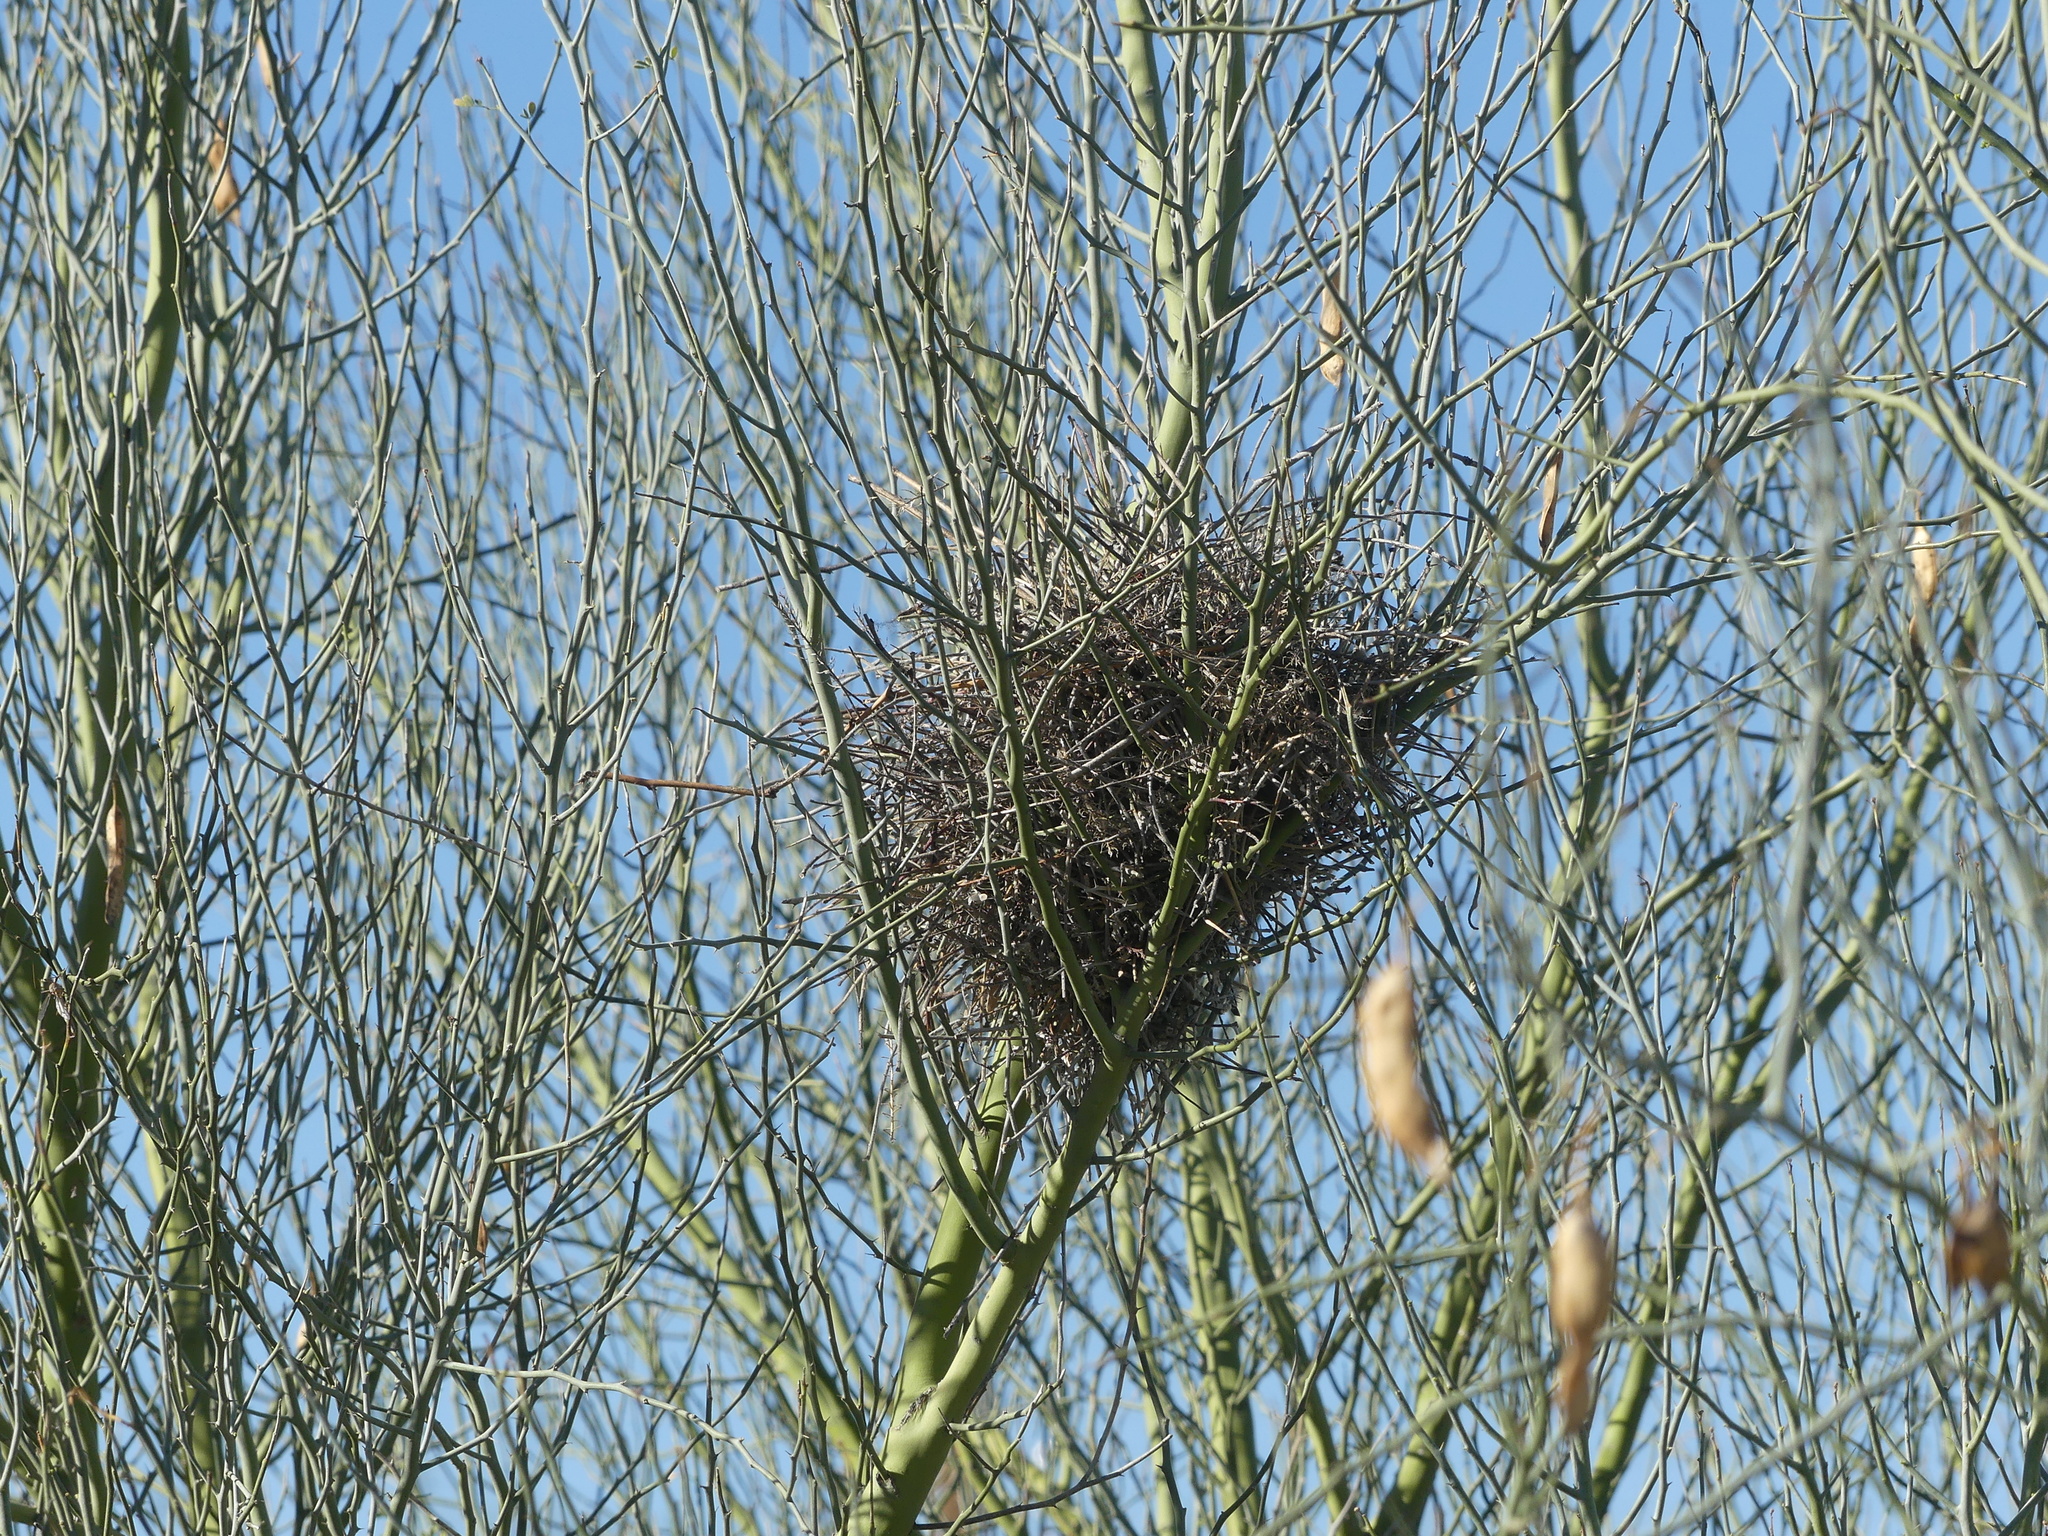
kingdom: Animalia
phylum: Chordata
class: Aves
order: Passeriformes
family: Remizidae
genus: Auriparus
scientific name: Auriparus flaviceps
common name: Verdin
